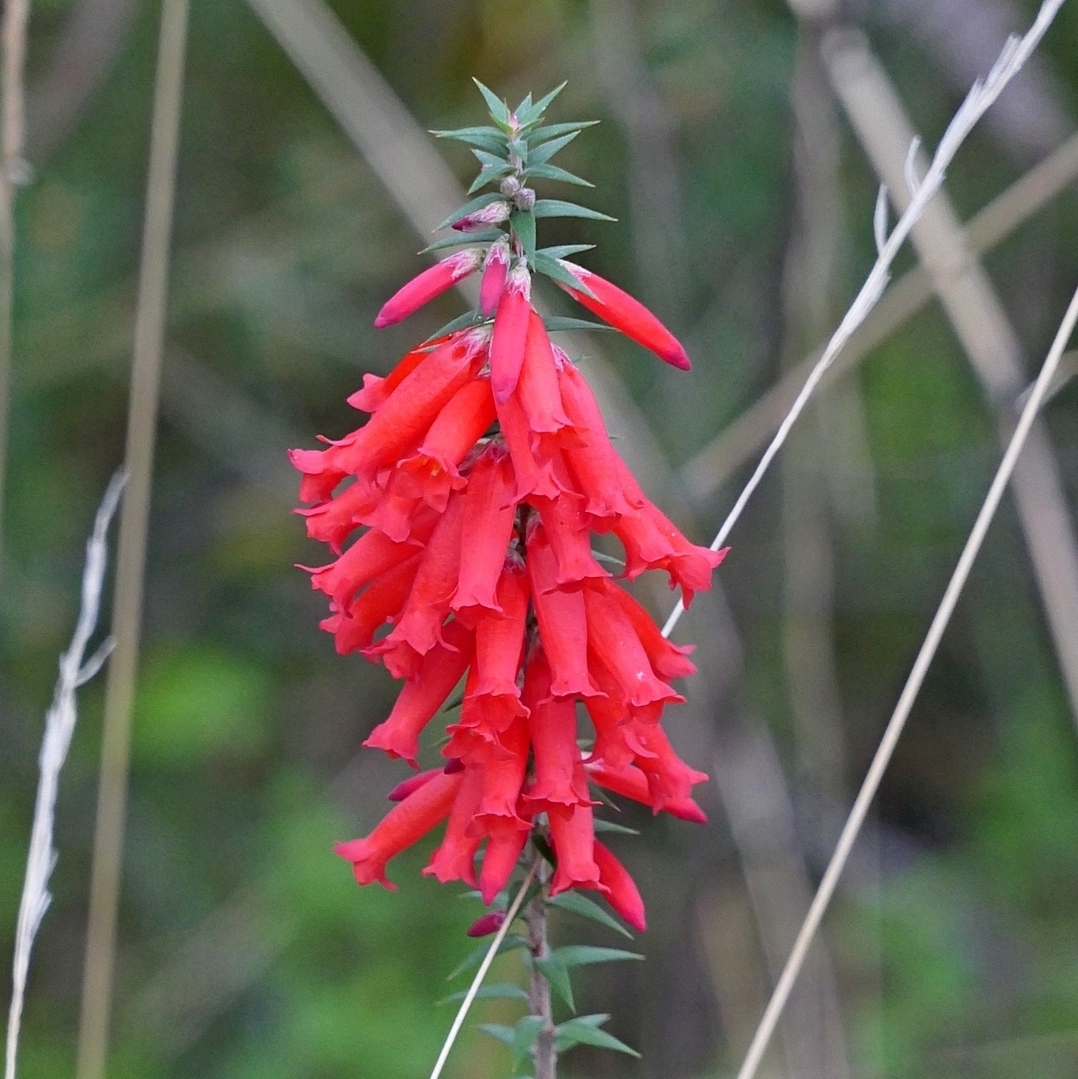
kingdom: Plantae
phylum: Tracheophyta
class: Magnoliopsida
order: Ericales
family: Ericaceae
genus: Epacris
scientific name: Epacris impressa
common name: Common-heath
